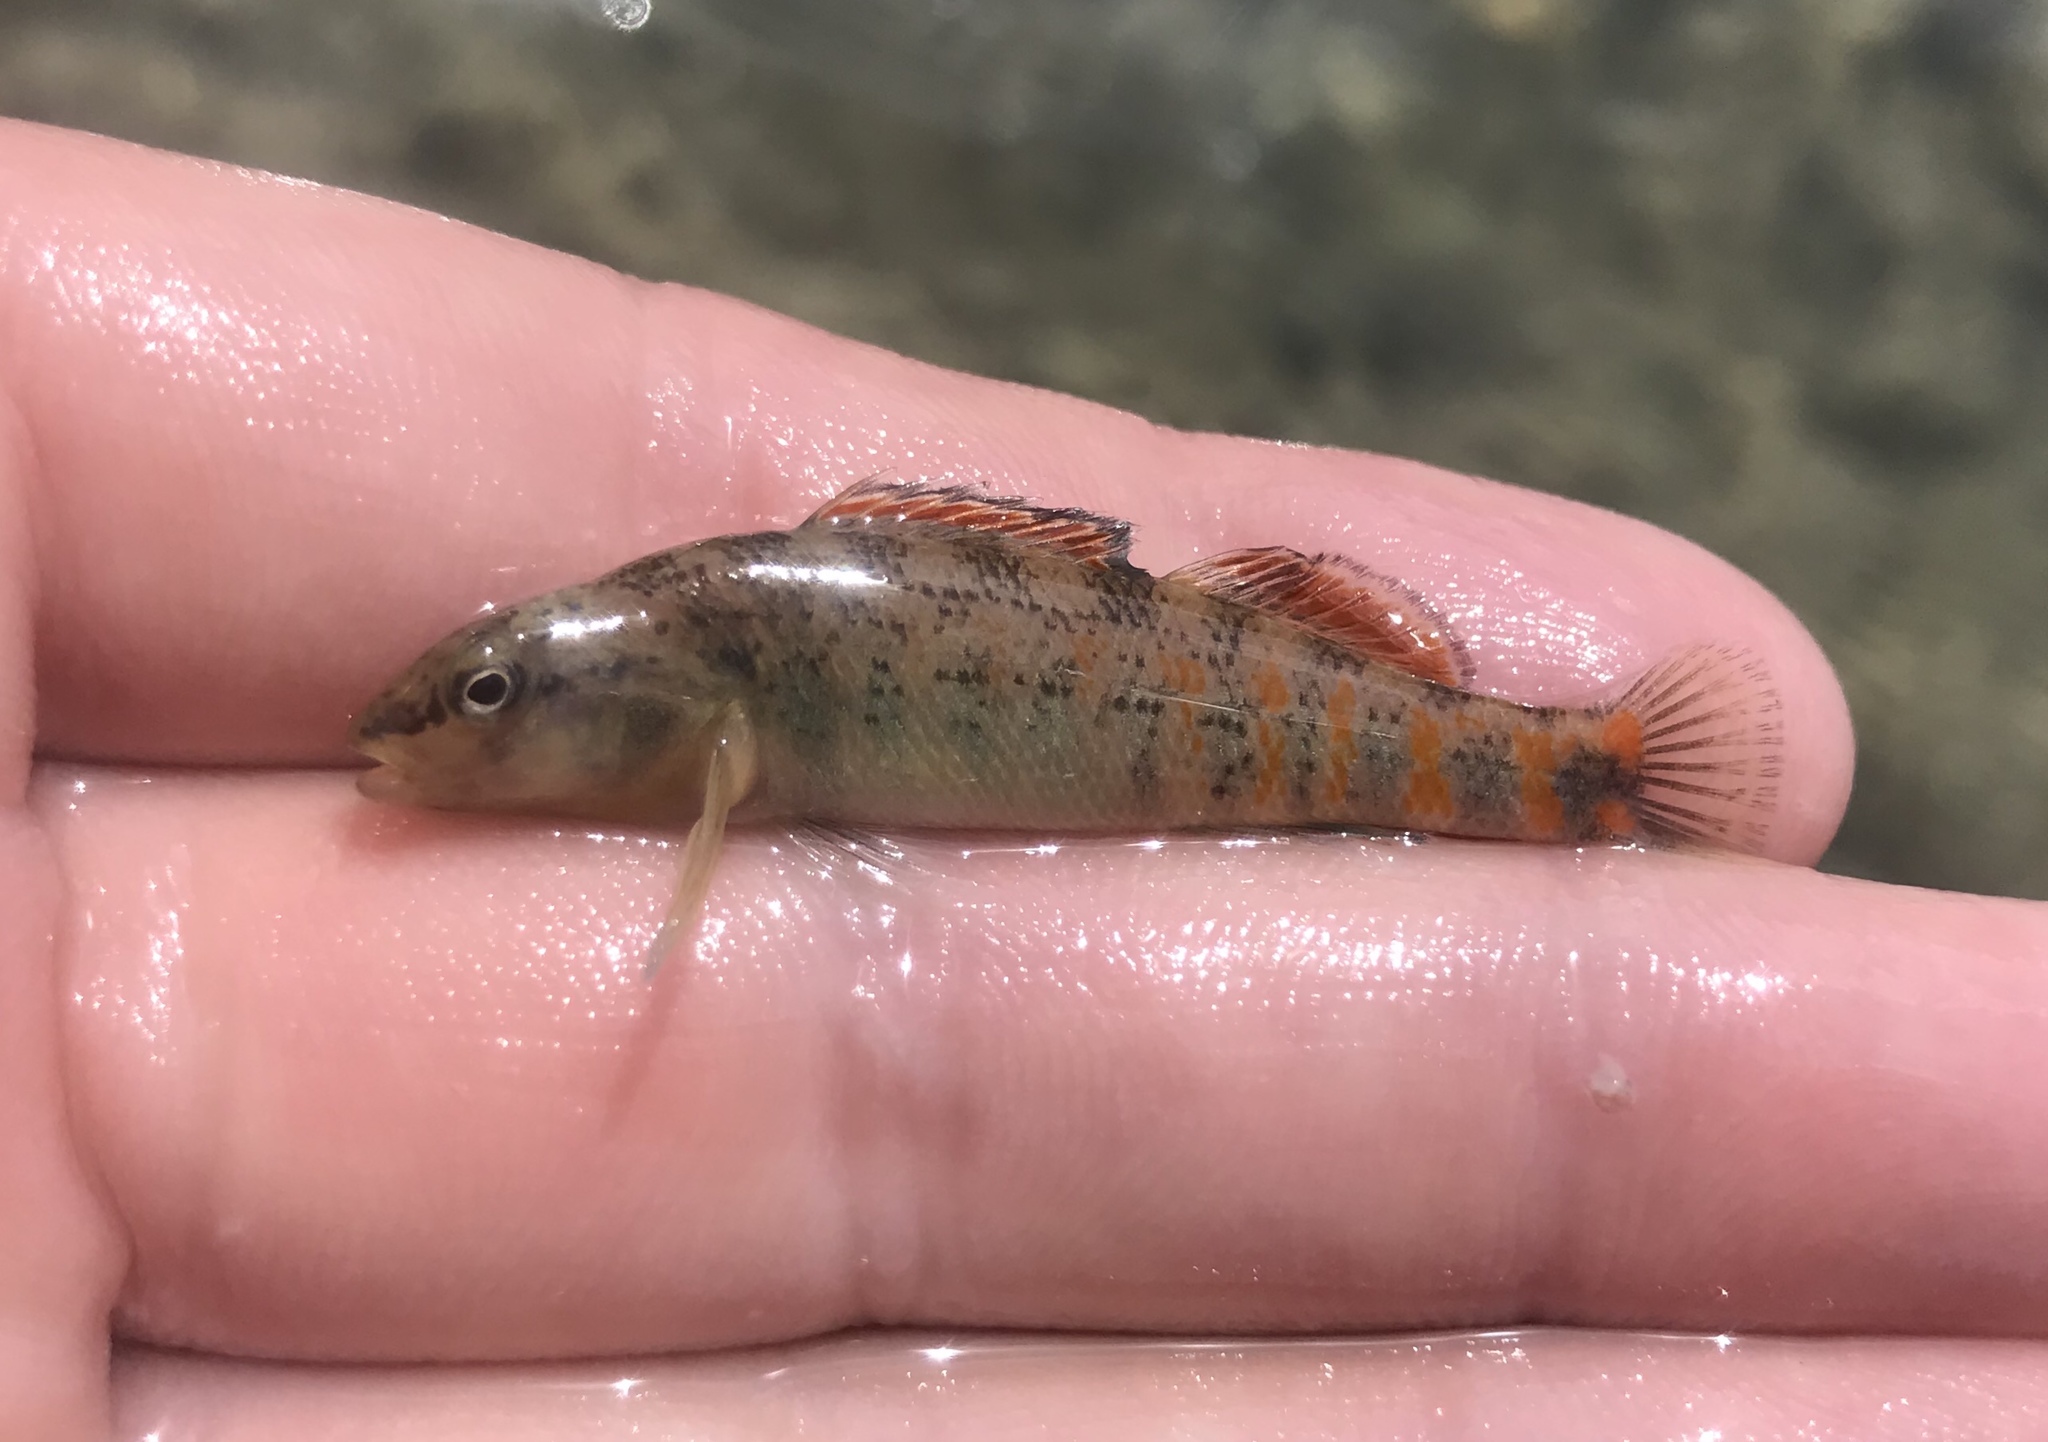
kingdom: Animalia
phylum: Chordata
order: Perciformes
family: Percidae
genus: Etheostoma
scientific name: Etheostoma spectabile
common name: Orangethroat darter
